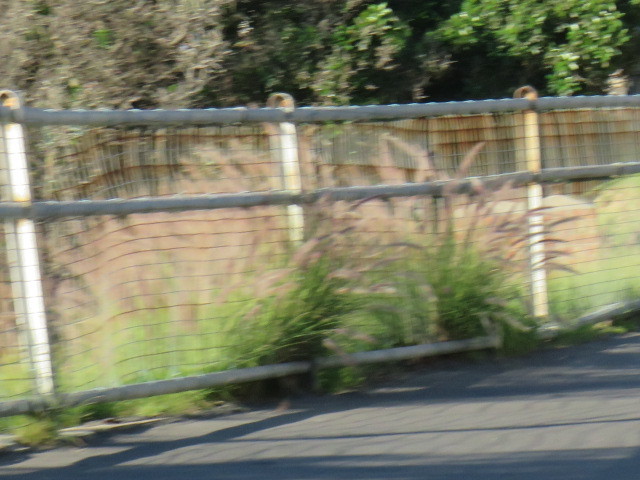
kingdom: Plantae
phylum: Tracheophyta
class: Liliopsida
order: Poales
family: Poaceae
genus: Cenchrus
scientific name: Cenchrus setaceus
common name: Crimson fountaingrass
